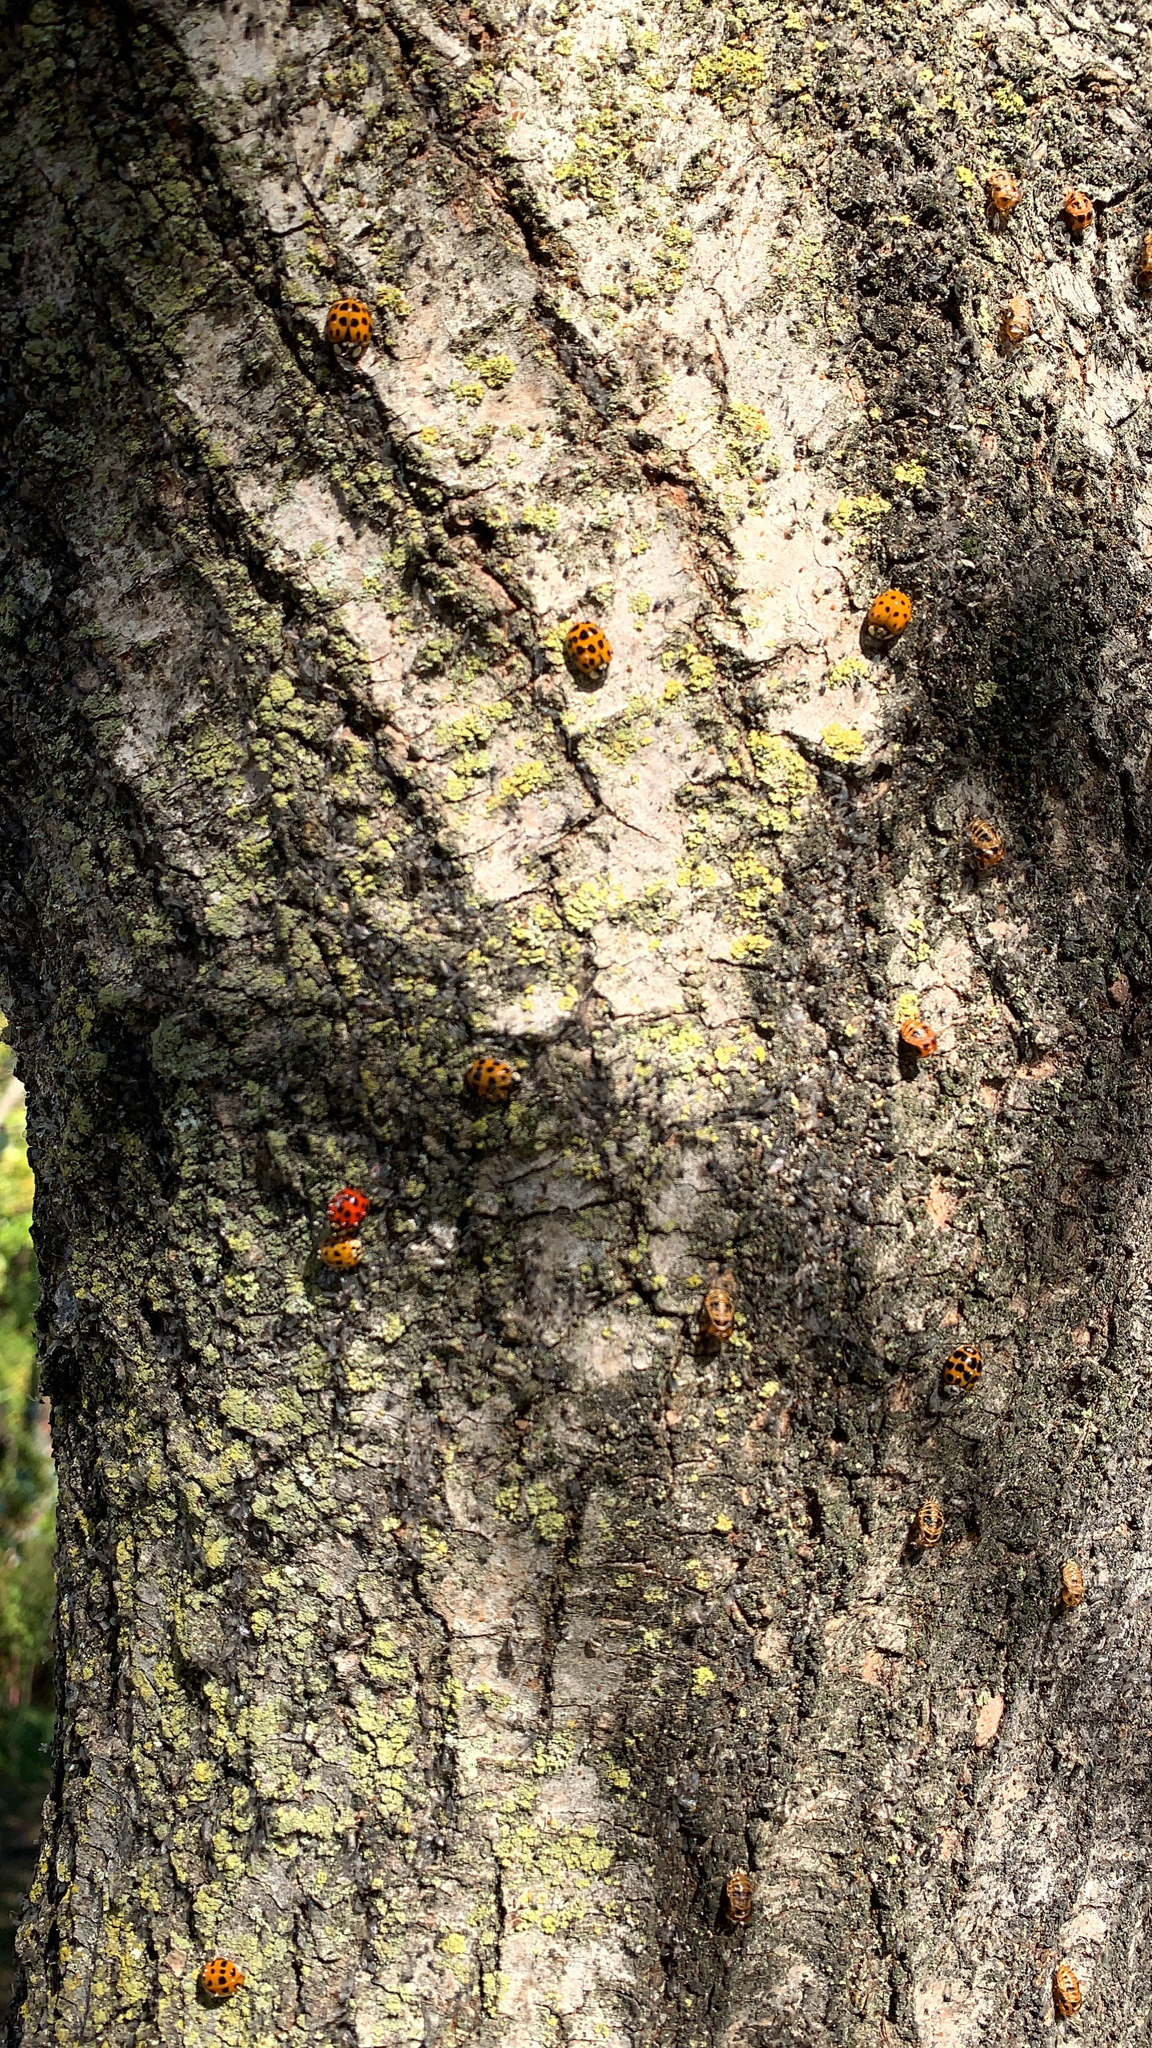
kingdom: Animalia
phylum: Arthropoda
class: Insecta
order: Coleoptera
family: Coccinellidae
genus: Harmonia
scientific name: Harmonia axyridis
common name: Harlequin ladybird
